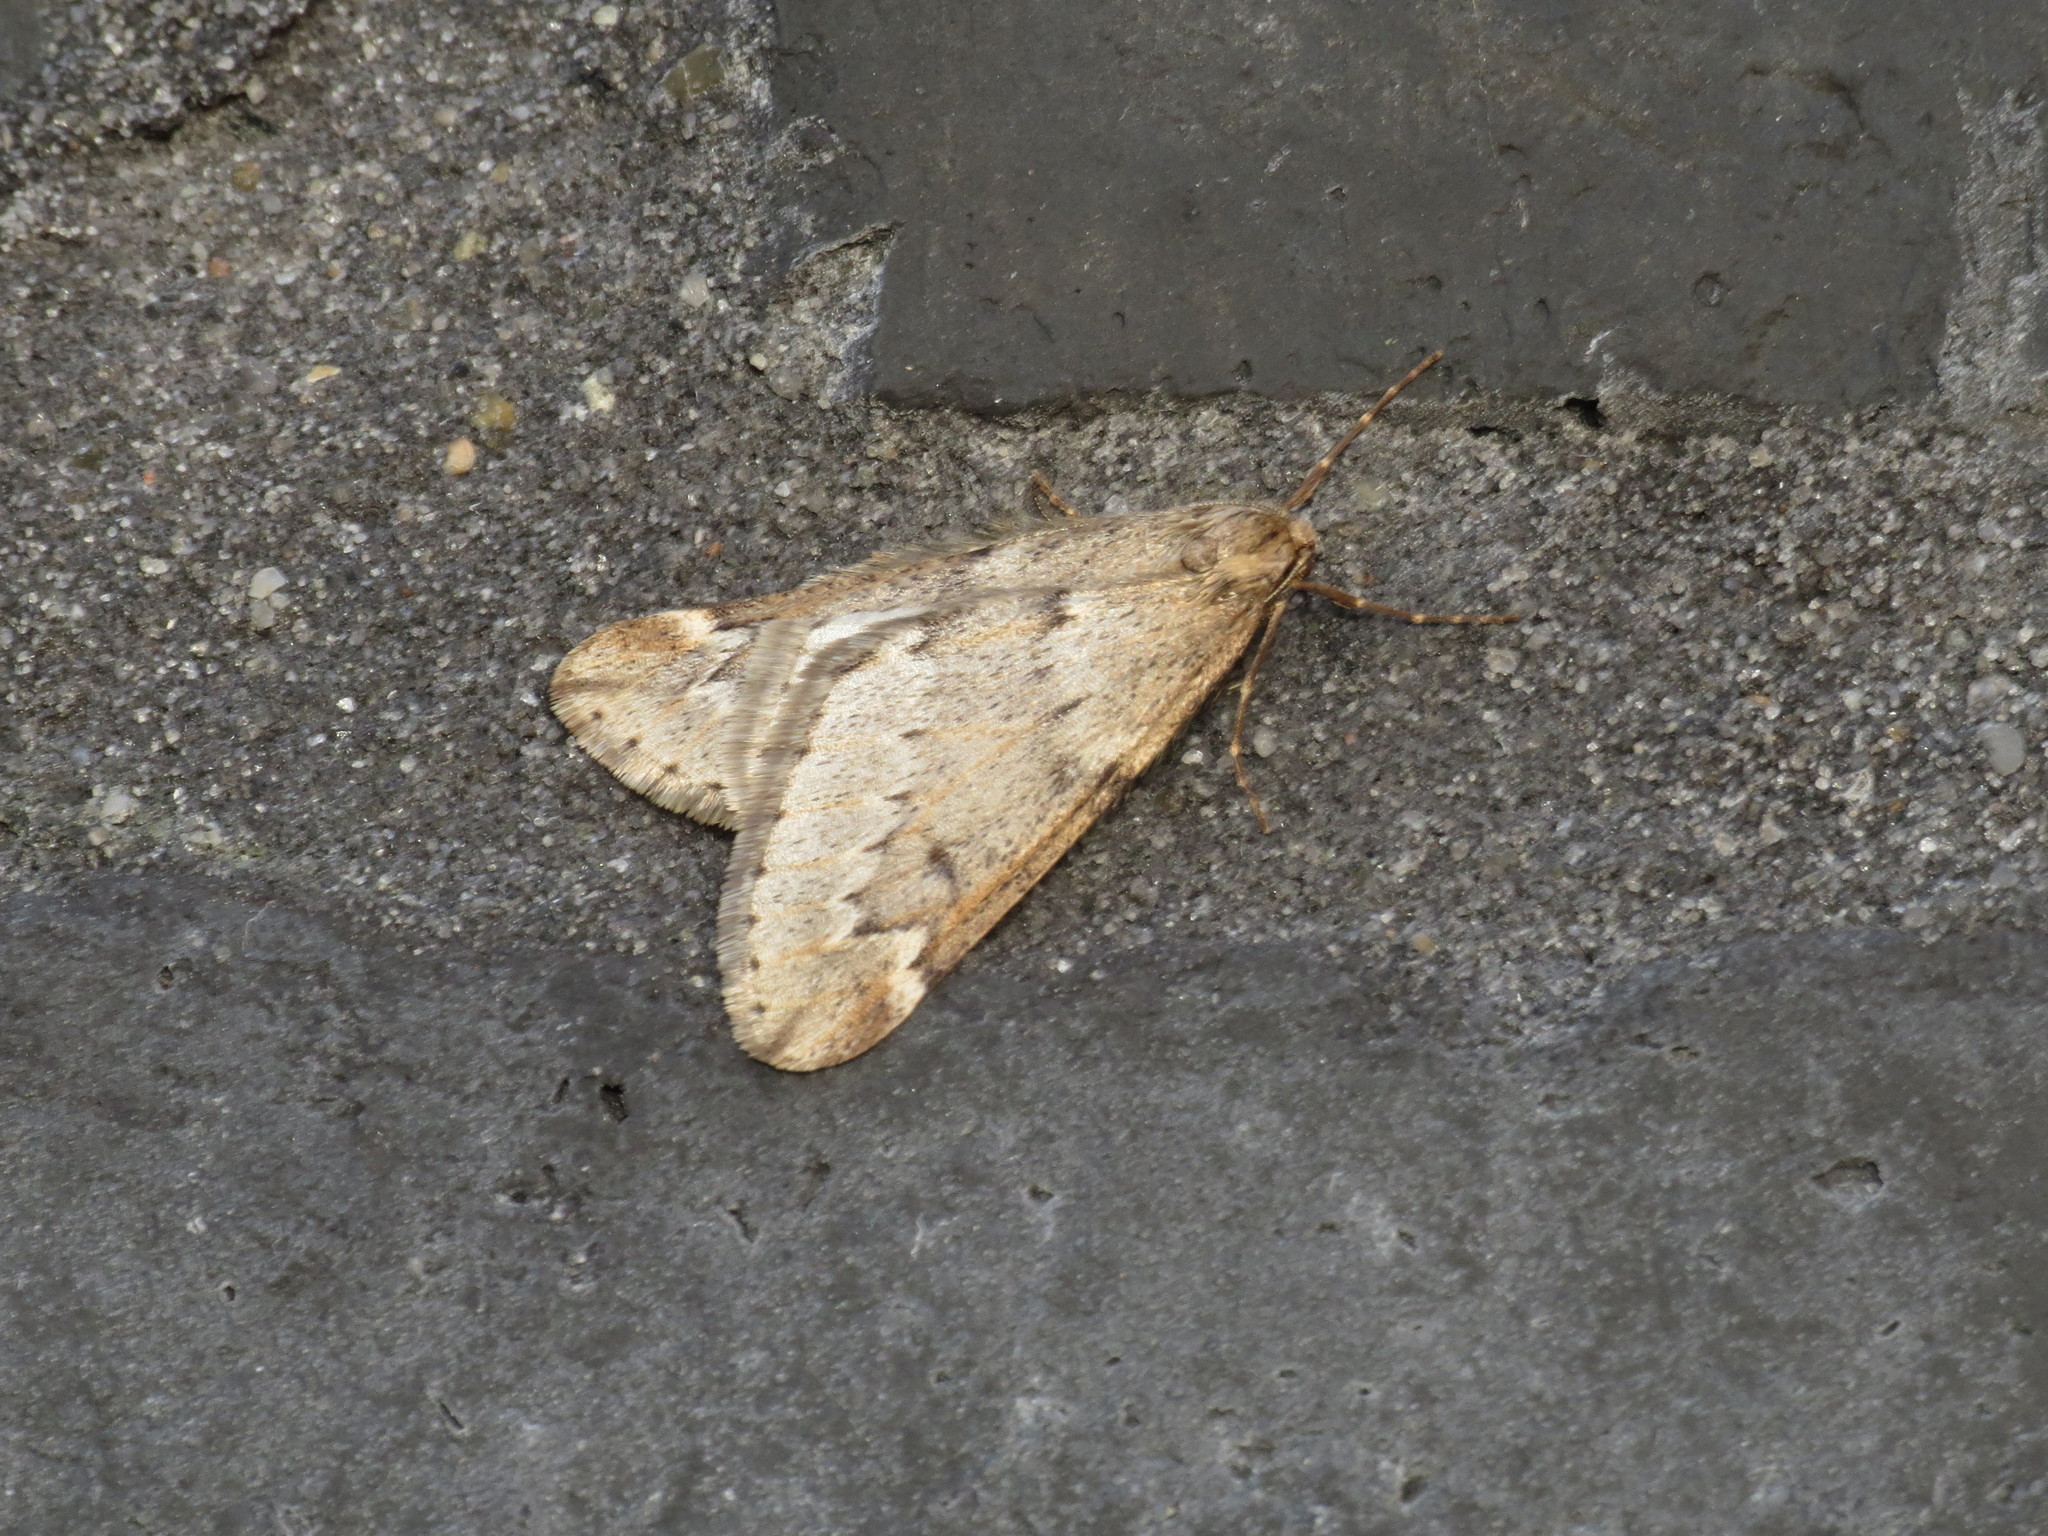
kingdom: Animalia
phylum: Arthropoda
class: Insecta
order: Lepidoptera
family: Geometridae
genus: Alsophila
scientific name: Alsophila aescularia
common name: March moth
